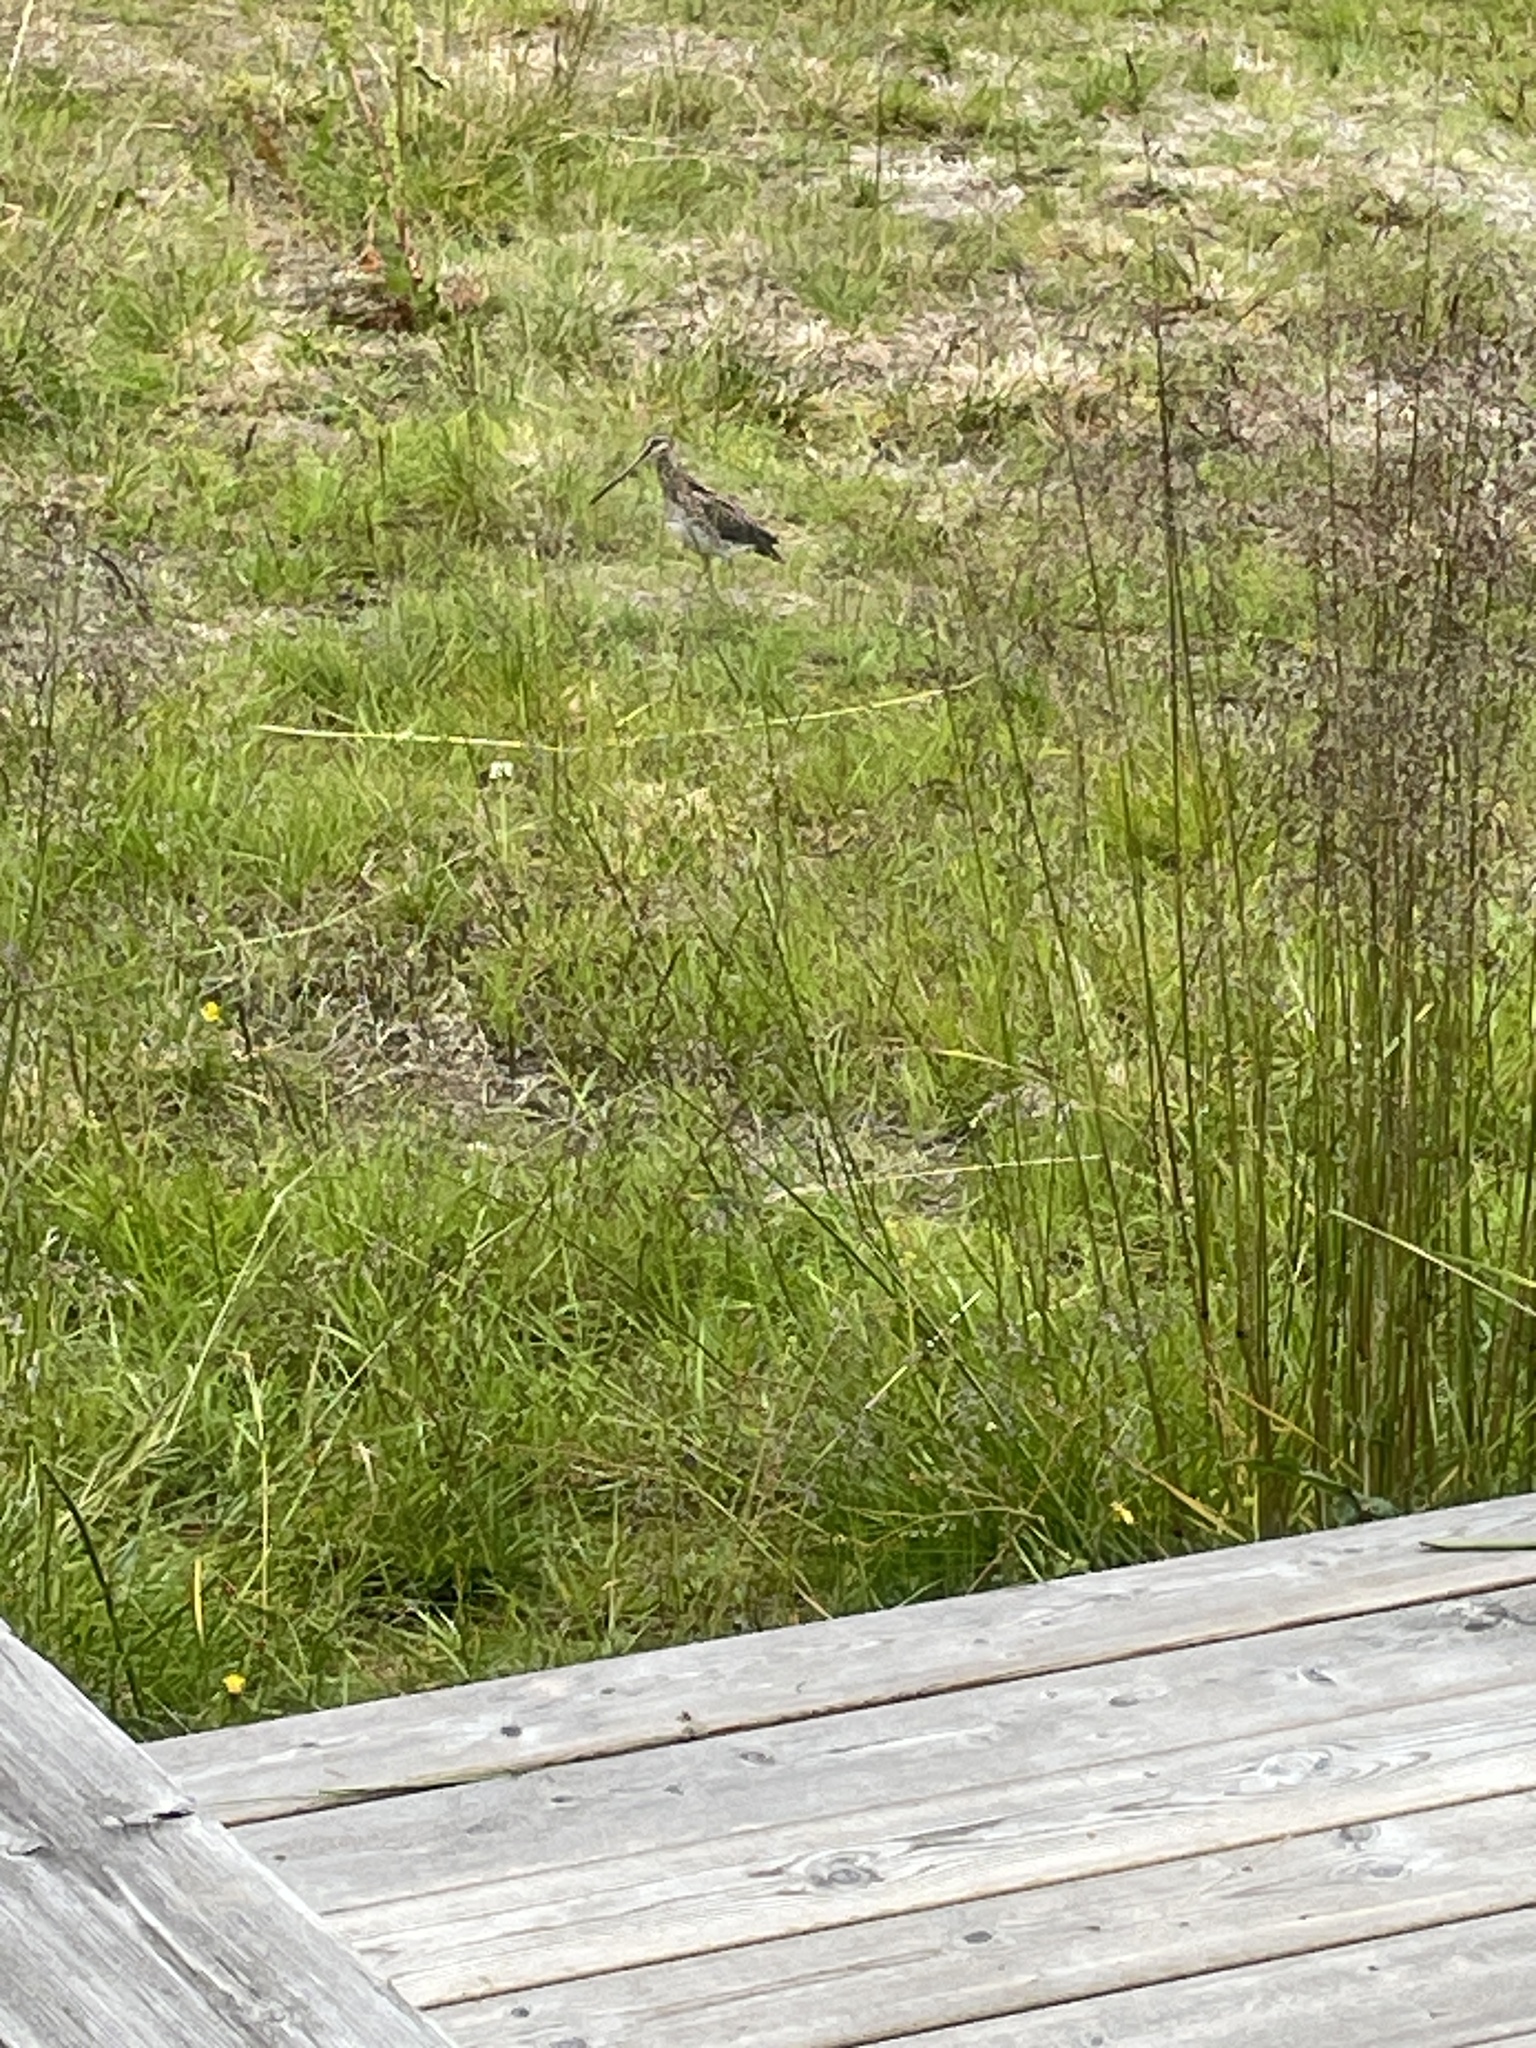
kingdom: Animalia
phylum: Chordata
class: Aves
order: Charadriiformes
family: Scolopacidae
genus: Gallinago
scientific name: Gallinago gallinago
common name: Common snipe
